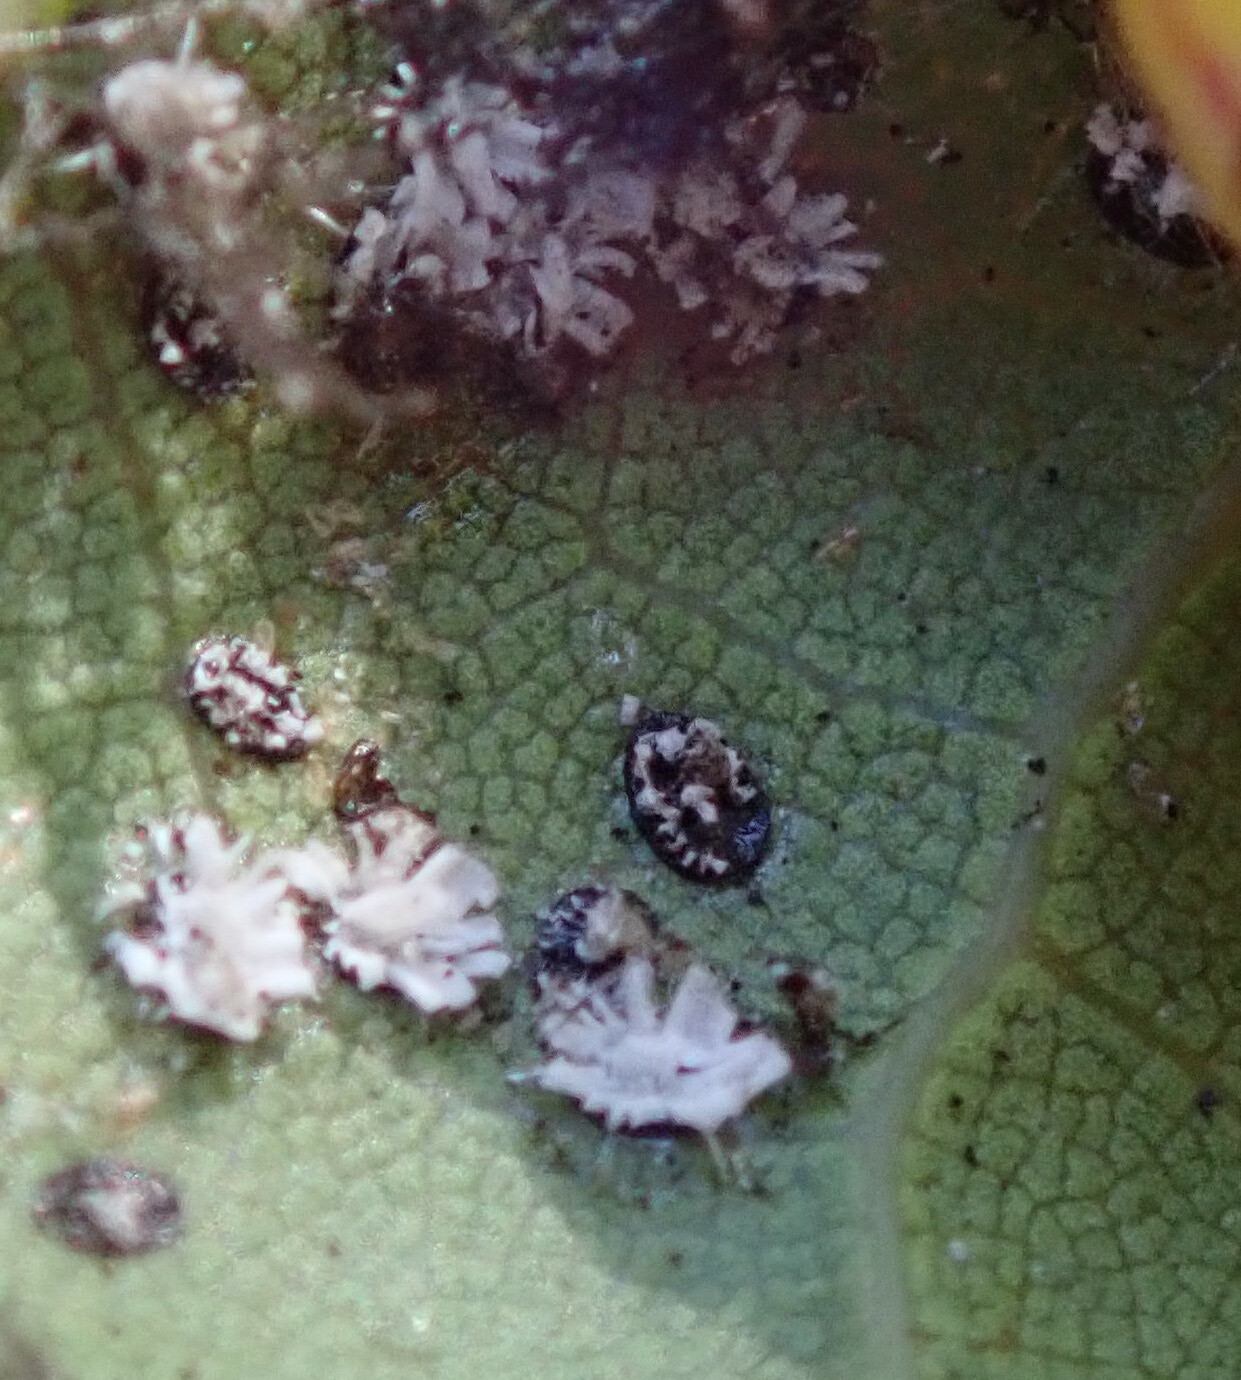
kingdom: Animalia
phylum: Arthropoda
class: Insecta
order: Hemiptera
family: Aleyrodidae
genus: Aleuroplatus
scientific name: Aleuroplatus coronata
